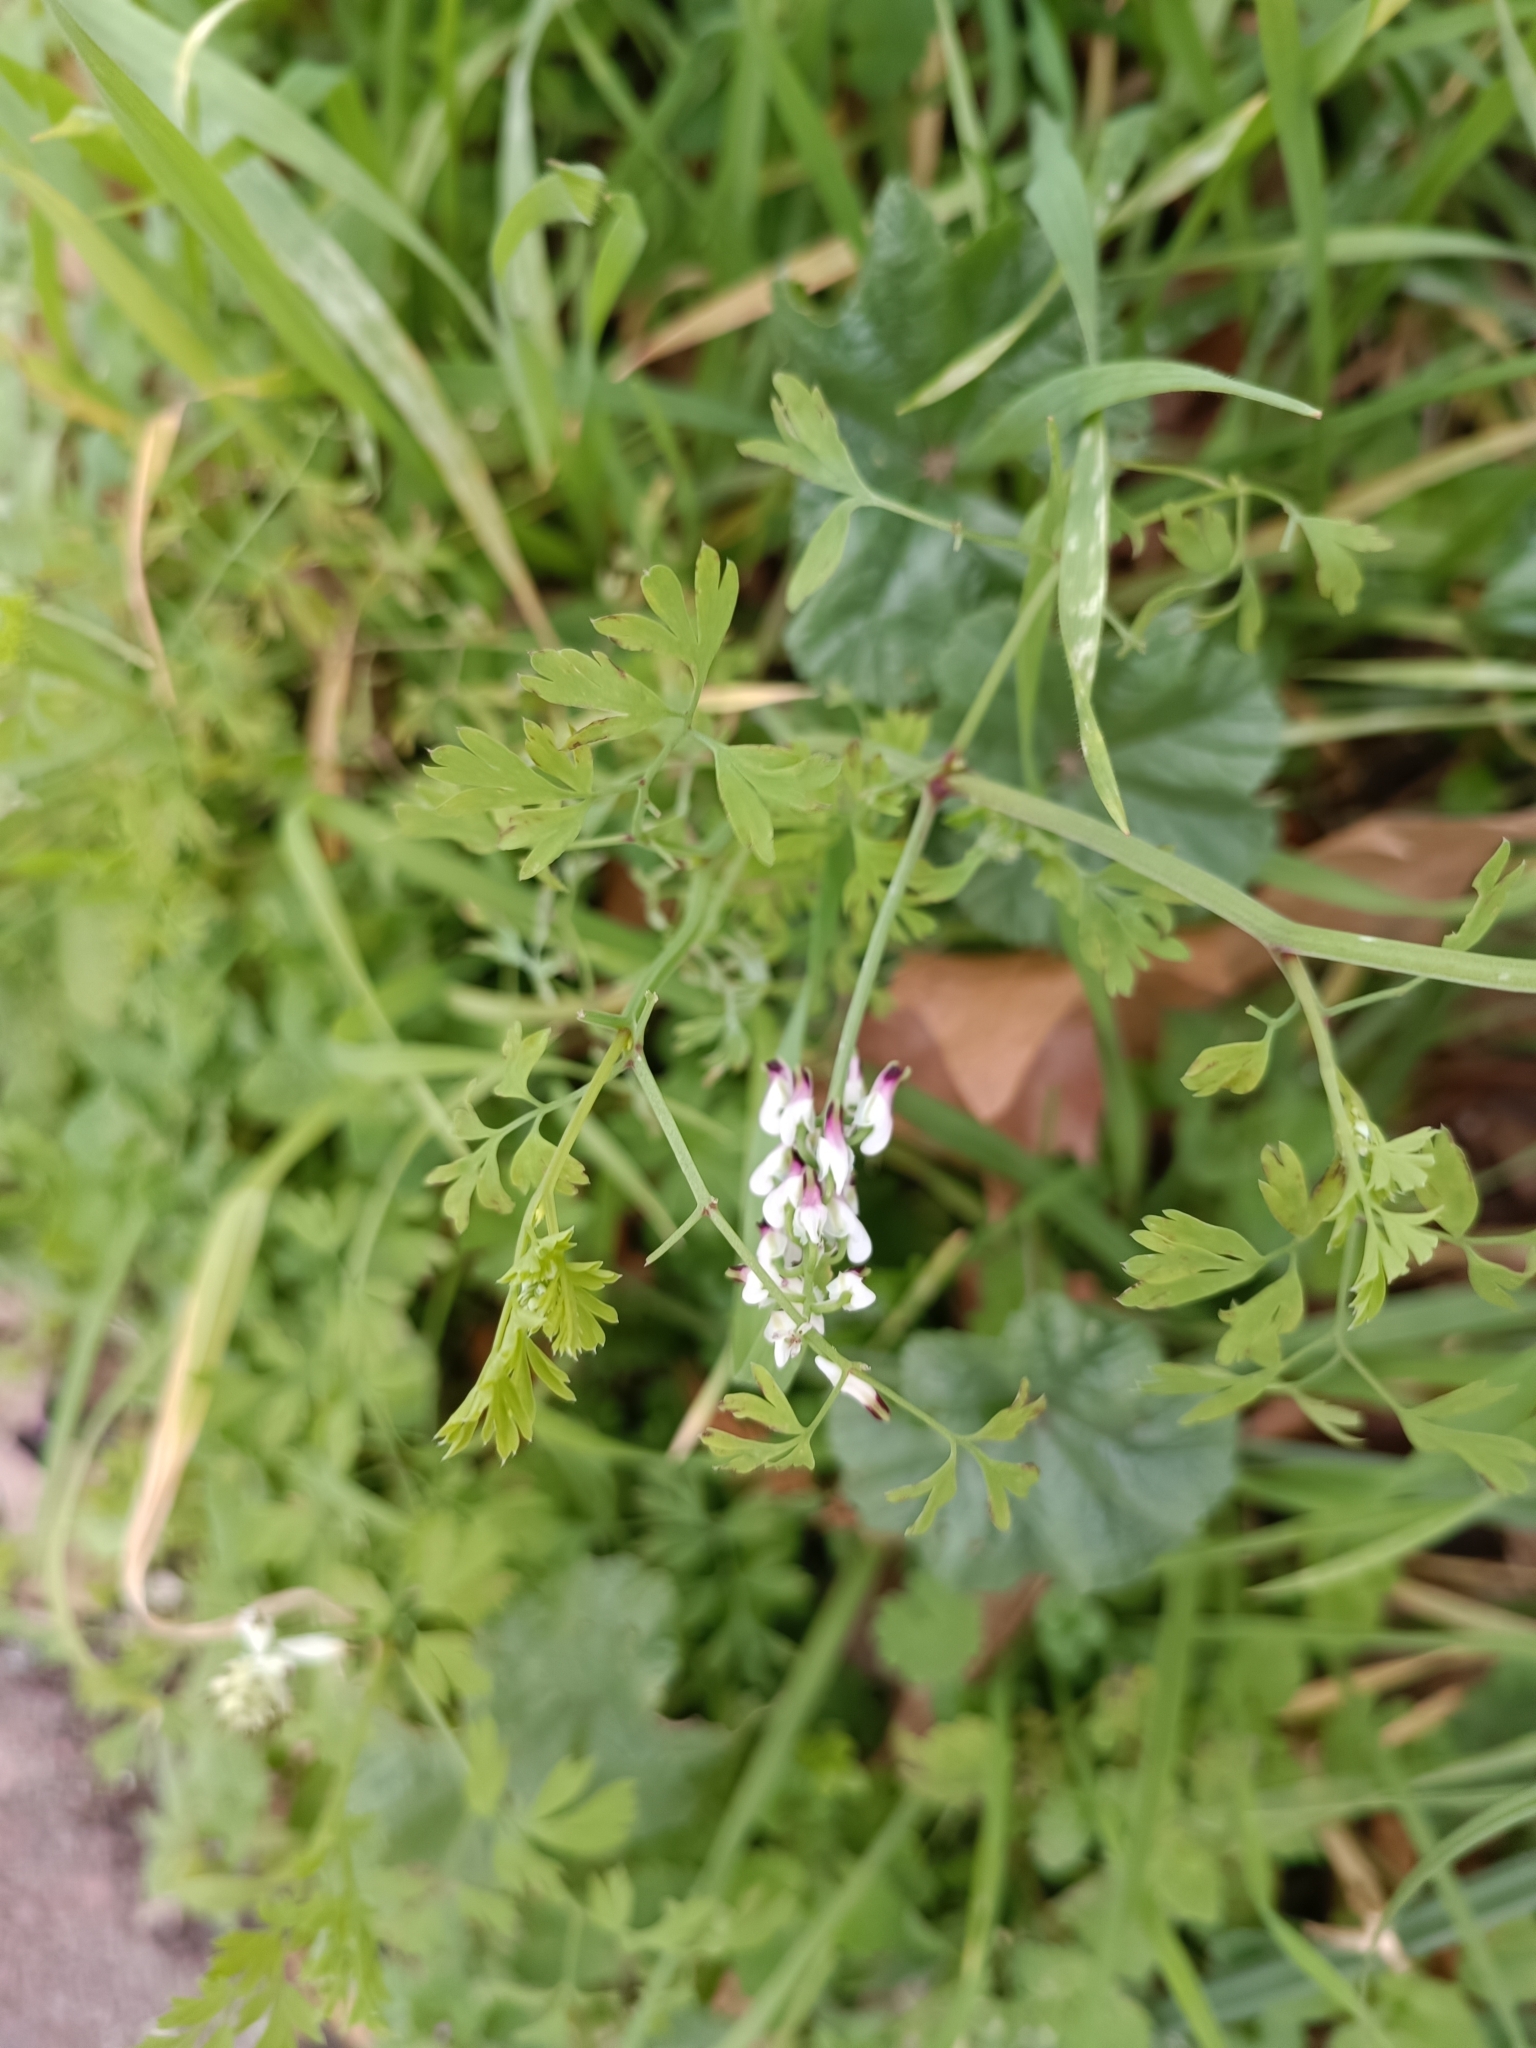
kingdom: Plantae
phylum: Tracheophyta
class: Magnoliopsida
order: Ranunculales
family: Papaveraceae
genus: Fumaria
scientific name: Fumaria capreolata
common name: White ramping-fumitory
